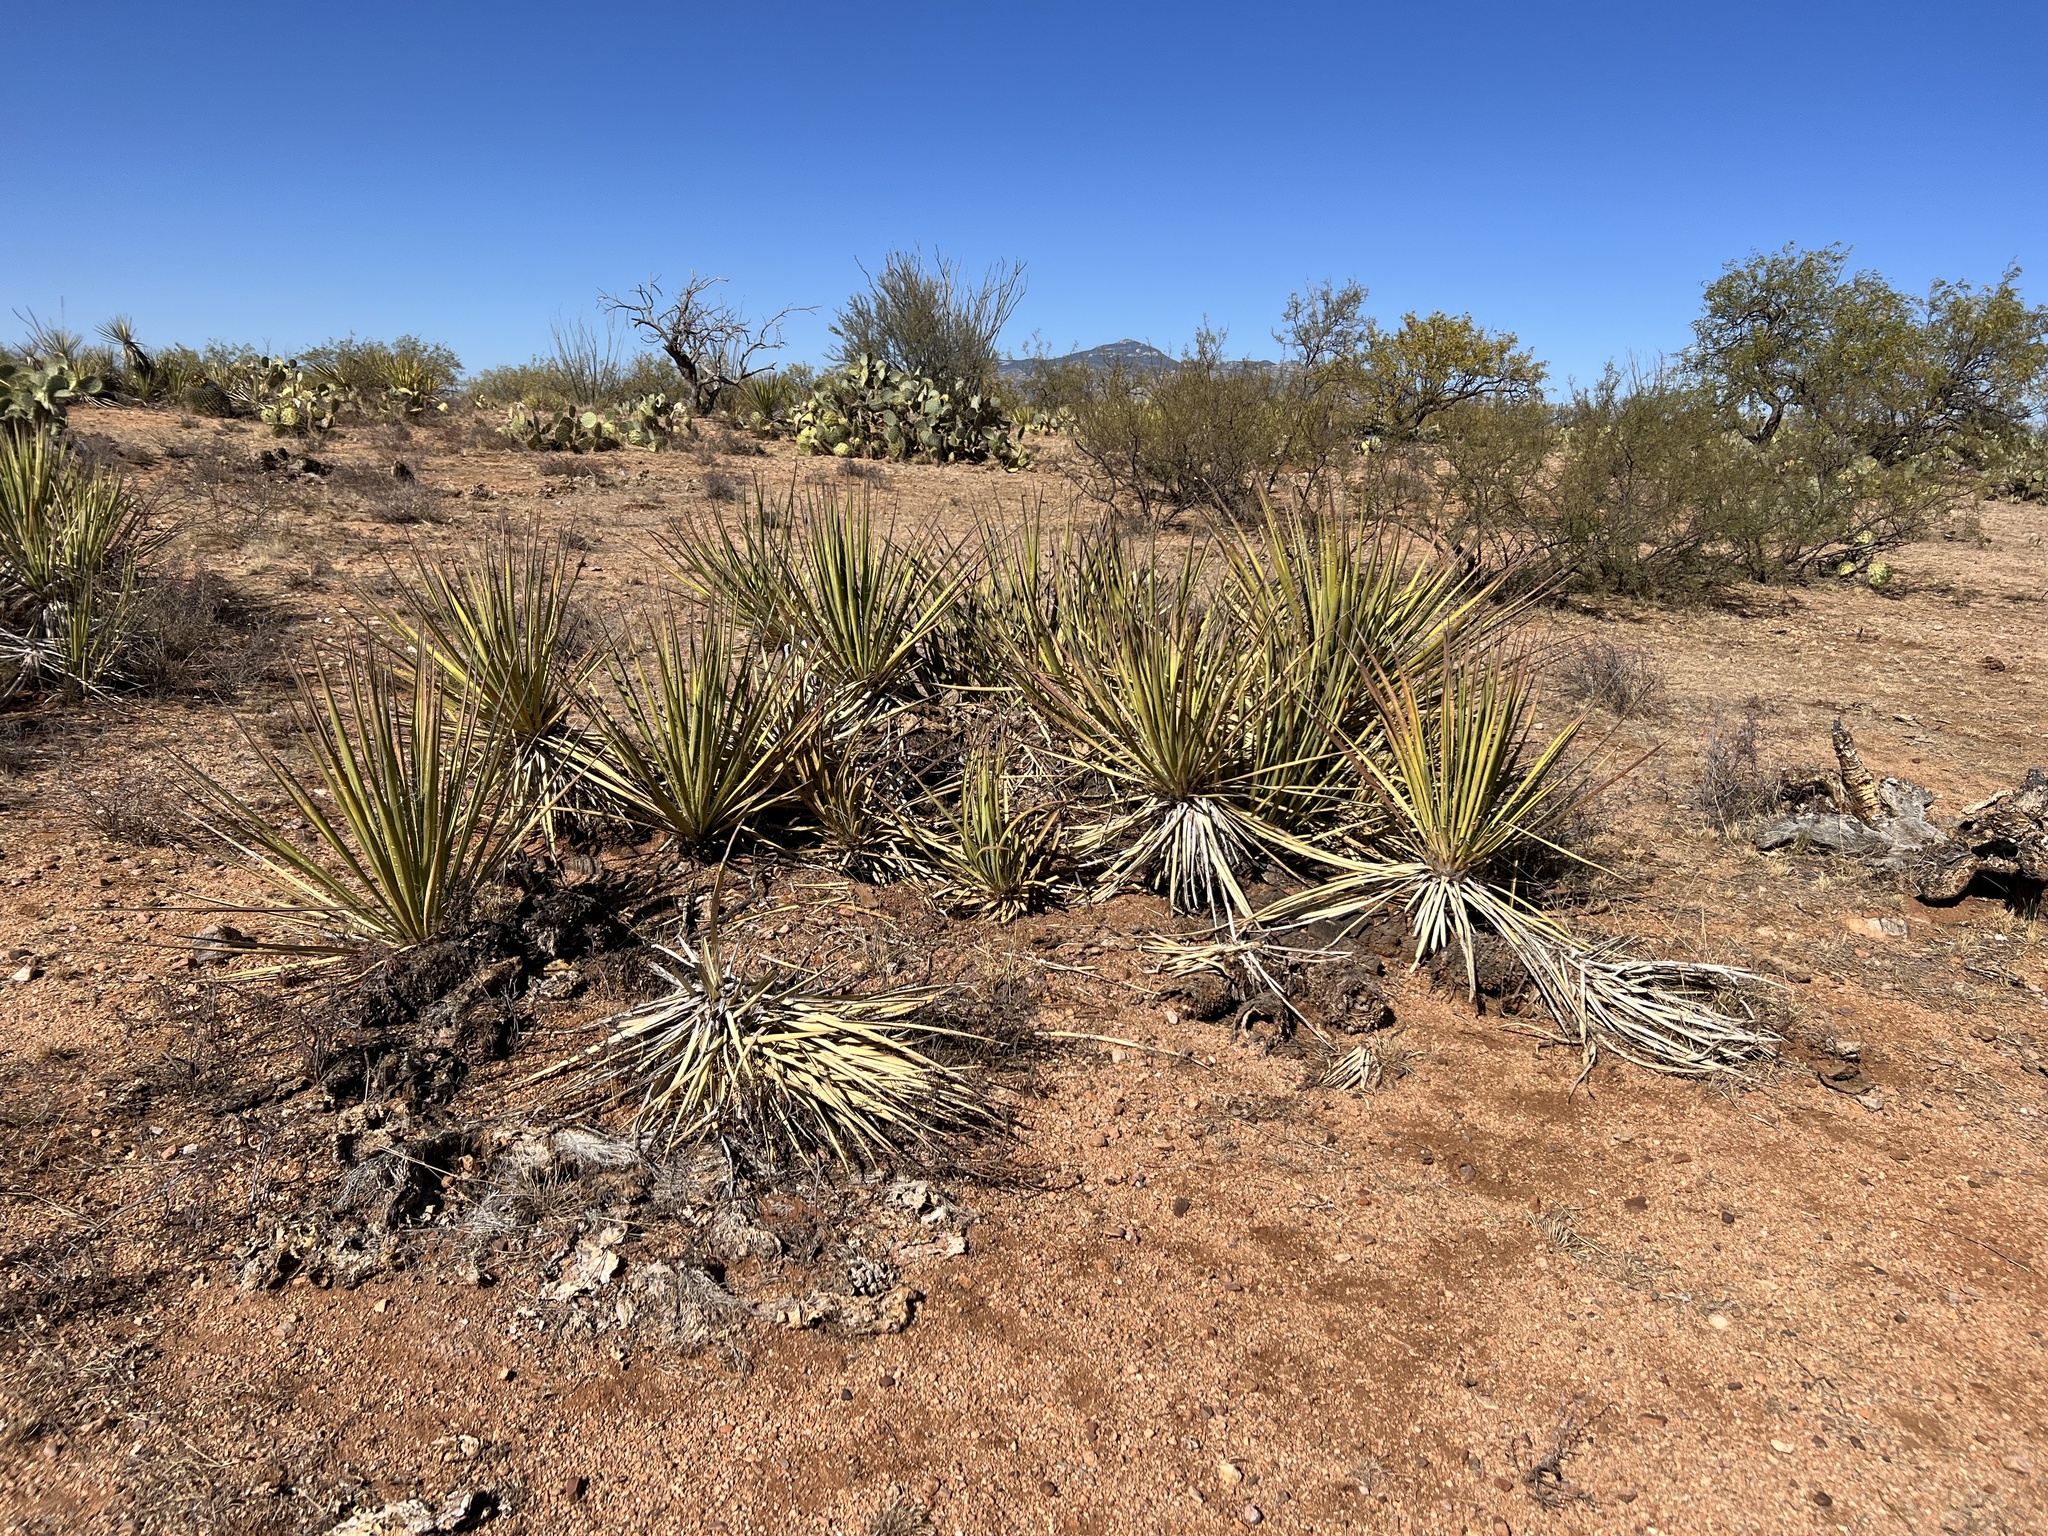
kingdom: Plantae
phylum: Tracheophyta
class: Liliopsida
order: Asparagales
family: Asparagaceae
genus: Yucca
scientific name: Yucca baccata
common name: Banana yucca
